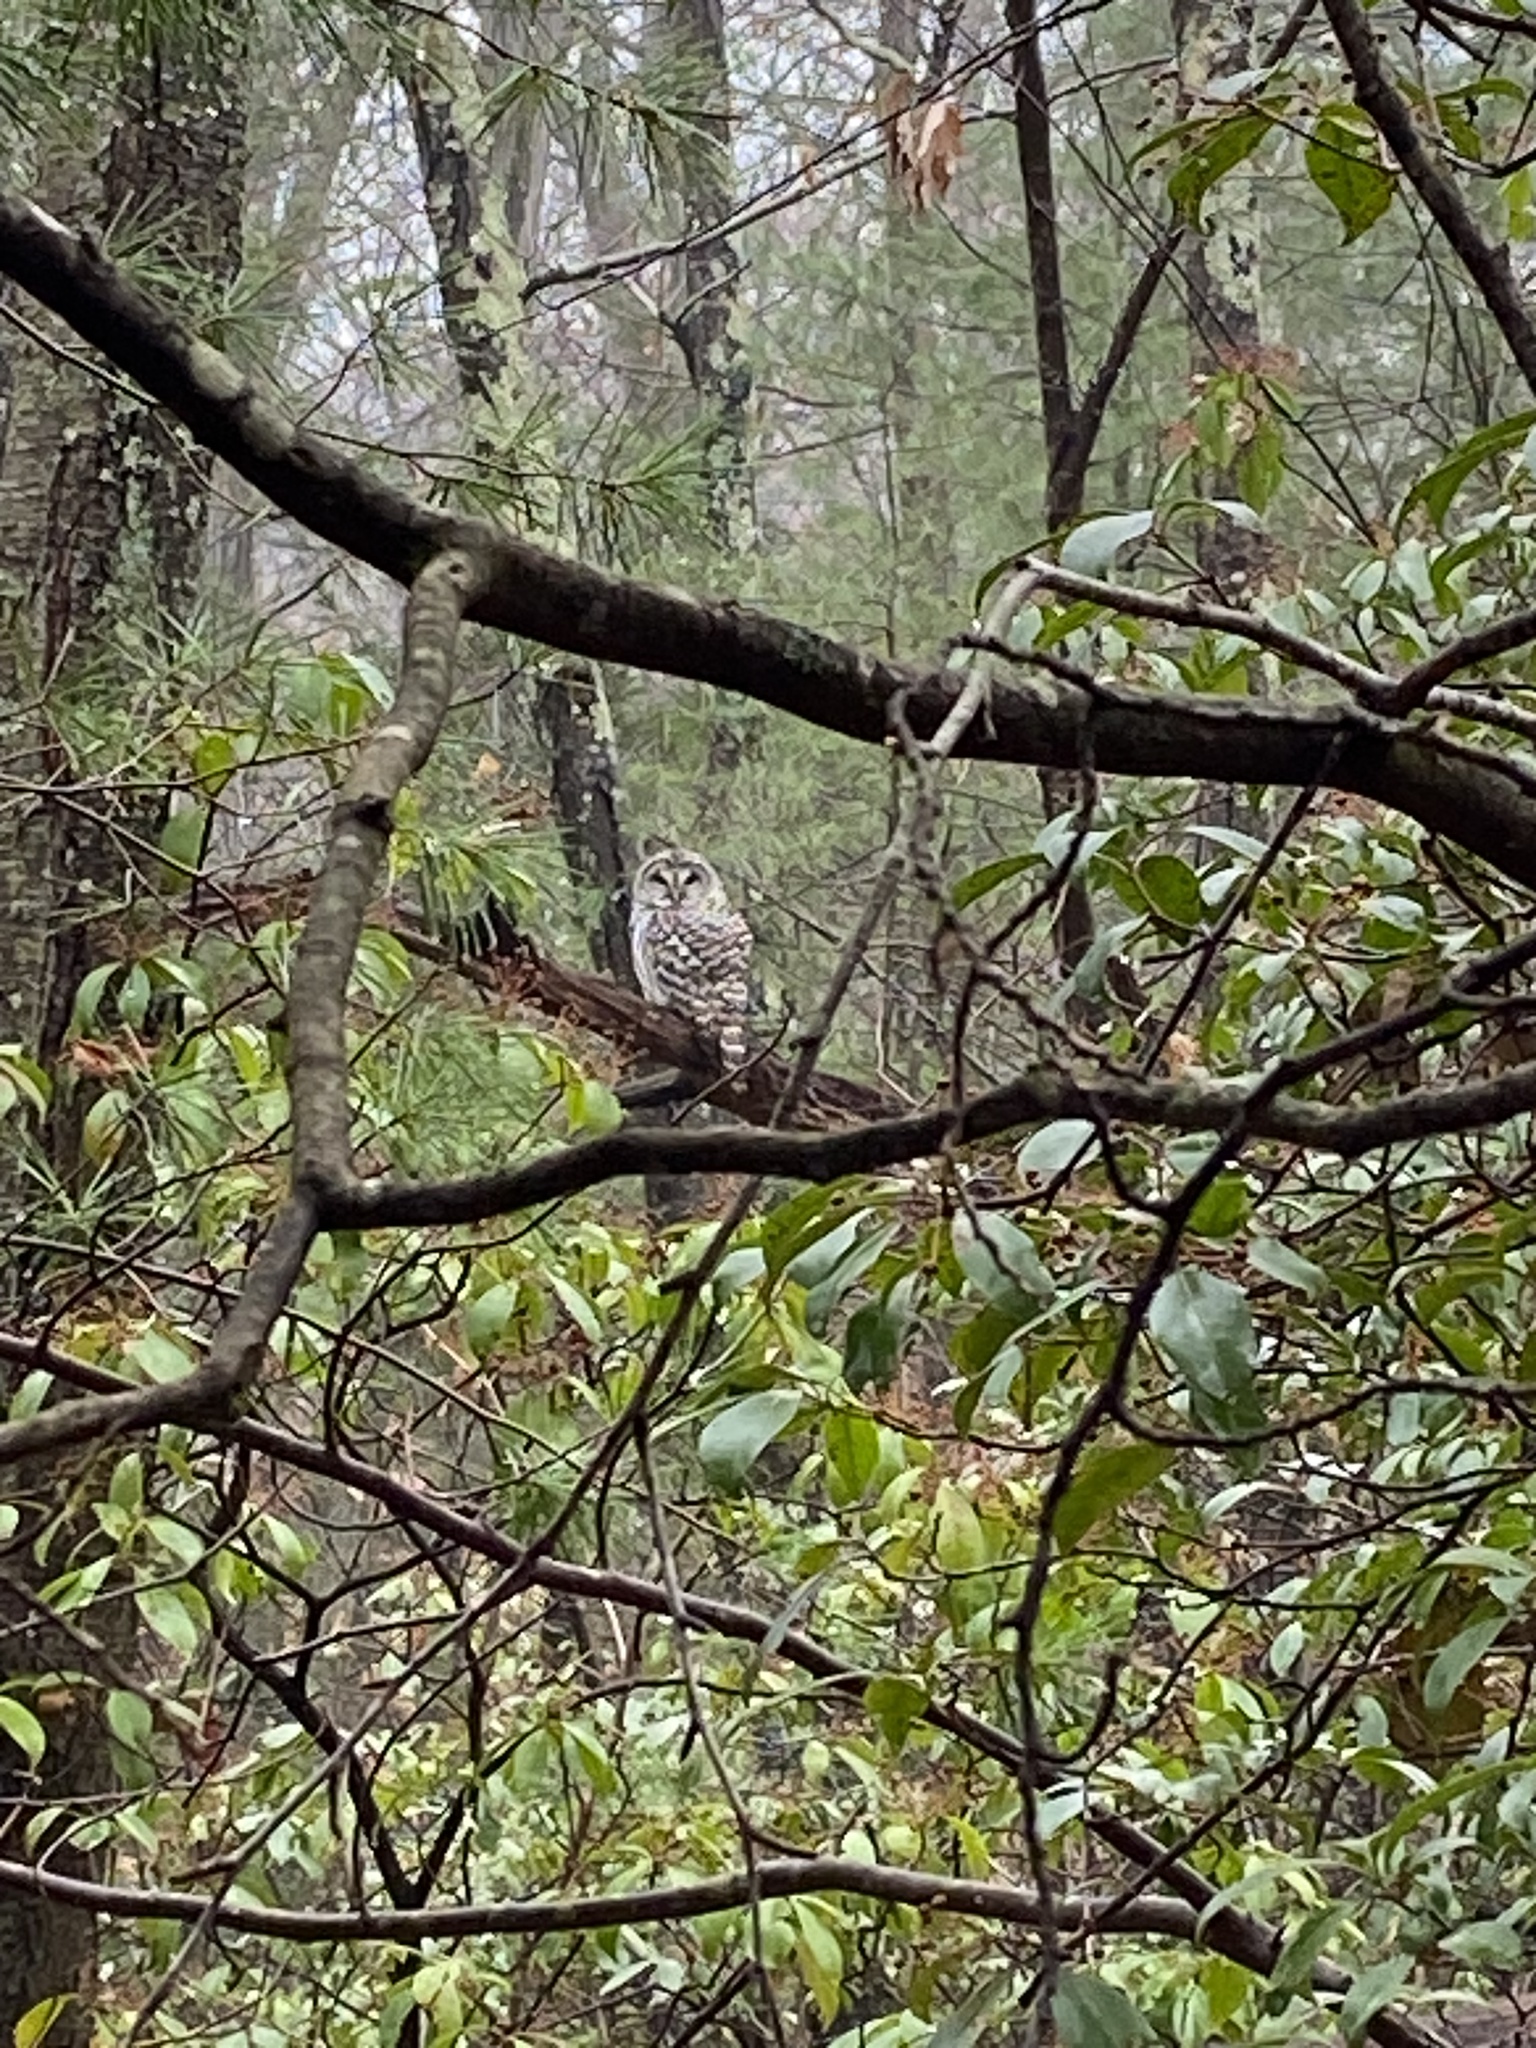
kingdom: Animalia
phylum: Chordata
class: Aves
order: Strigiformes
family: Strigidae
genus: Strix
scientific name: Strix varia
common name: Barred owl
